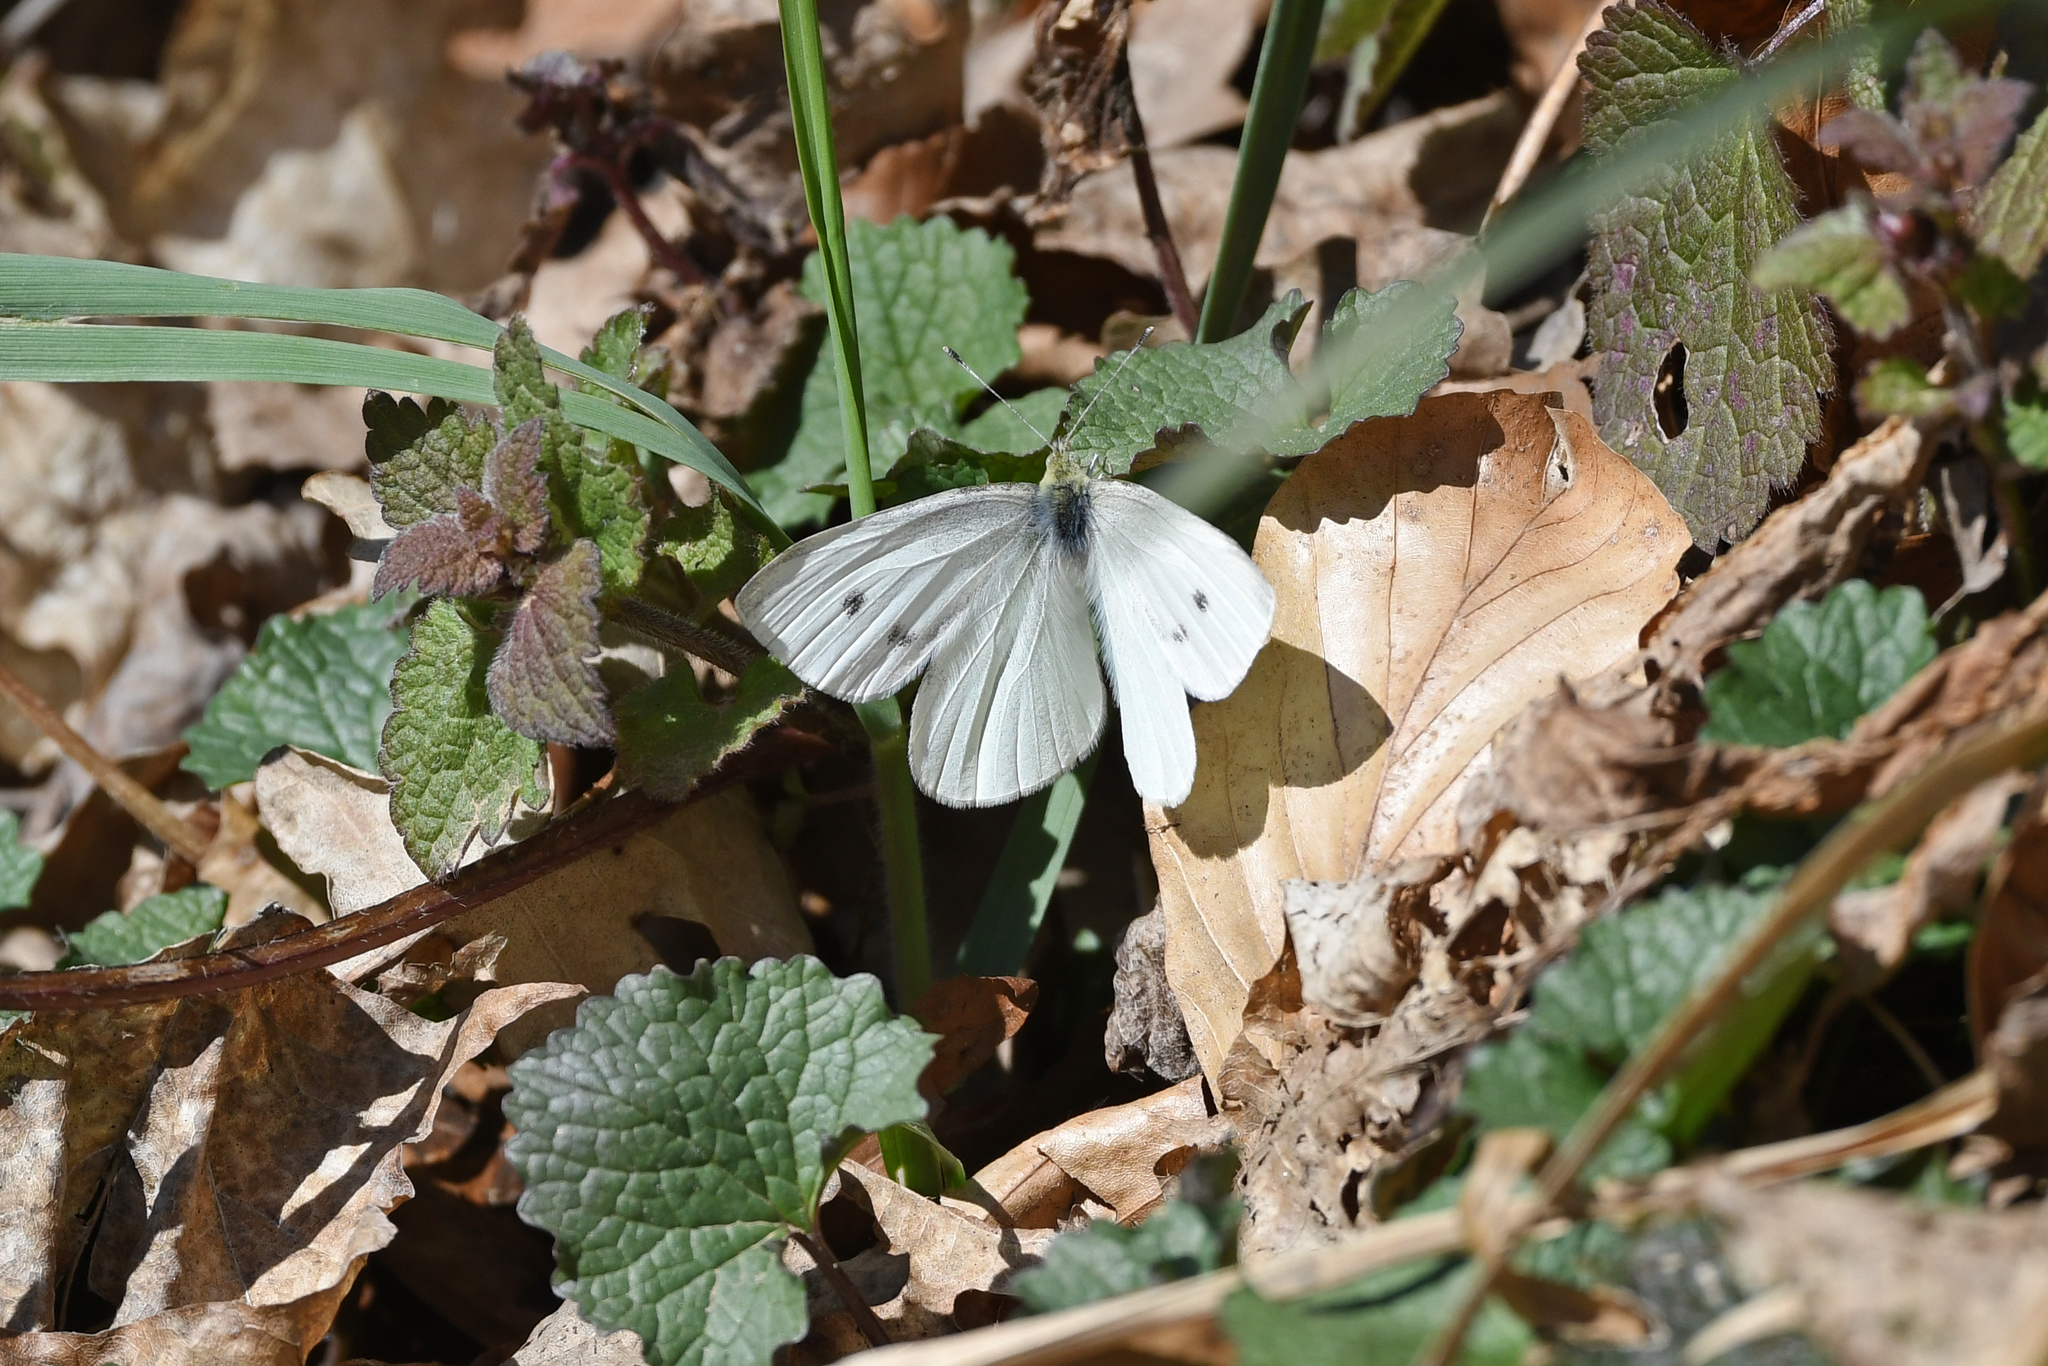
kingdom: Animalia
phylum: Arthropoda
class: Insecta
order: Lepidoptera
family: Pieridae
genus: Pieris
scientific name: Pieris rapae
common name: Small white
